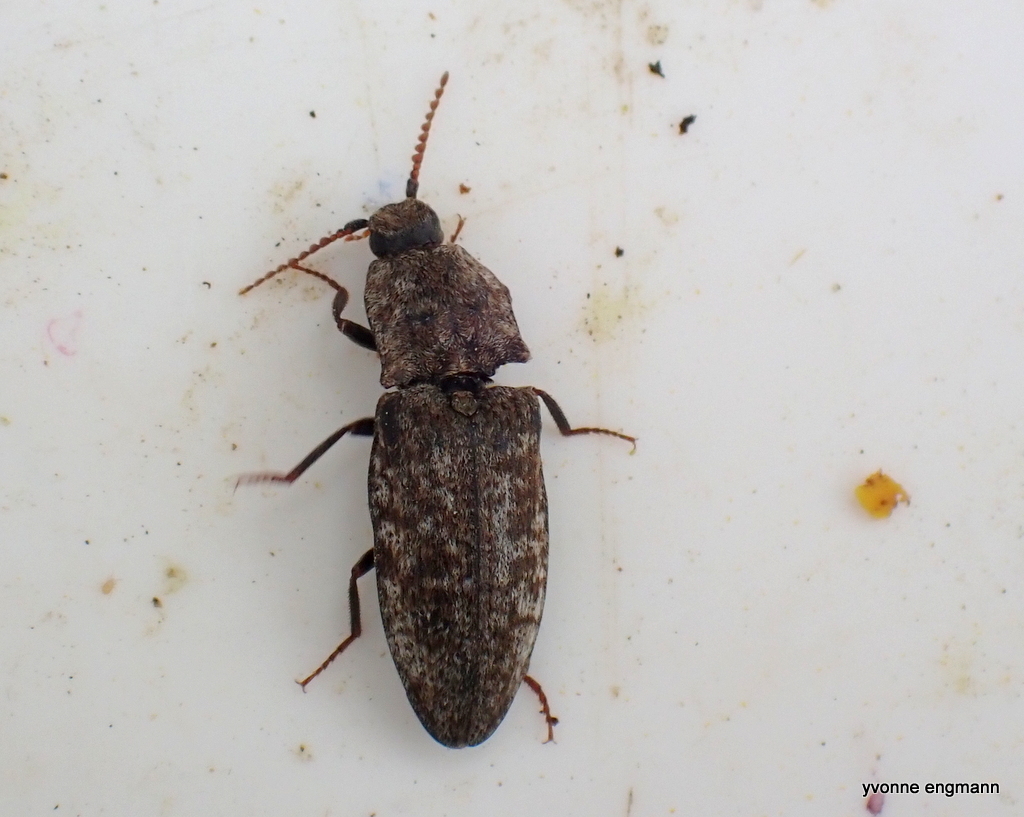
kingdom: Animalia
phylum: Arthropoda
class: Insecta
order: Coleoptera
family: Elateridae
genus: Agrypnus
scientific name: Agrypnus murinus
